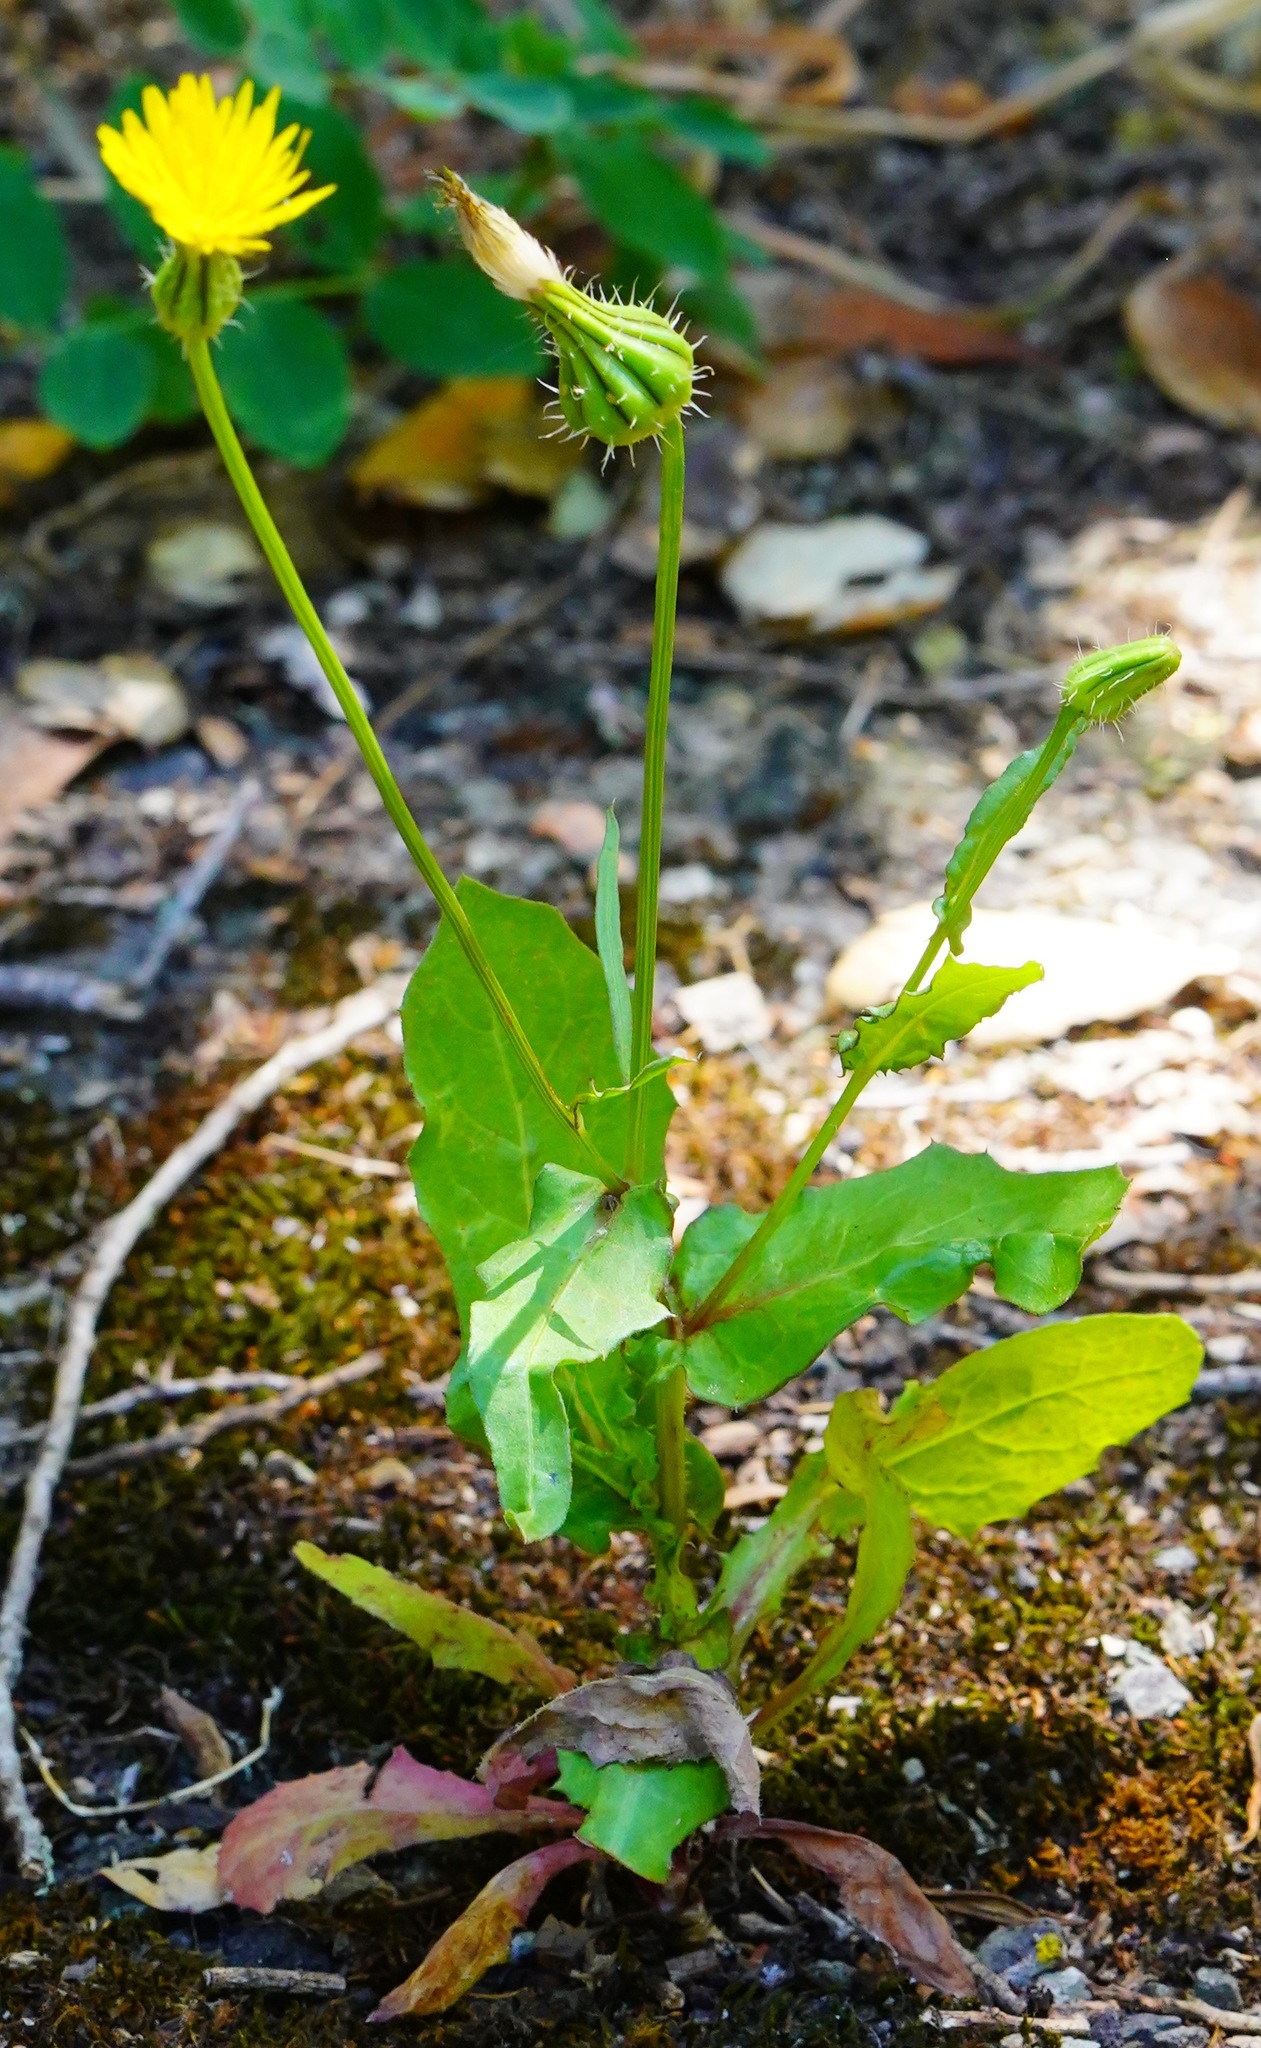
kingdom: Plantae
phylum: Tracheophyta
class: Magnoliopsida
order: Asterales
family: Asteraceae
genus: Urospermum
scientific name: Urospermum picroides
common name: False hawkbit
